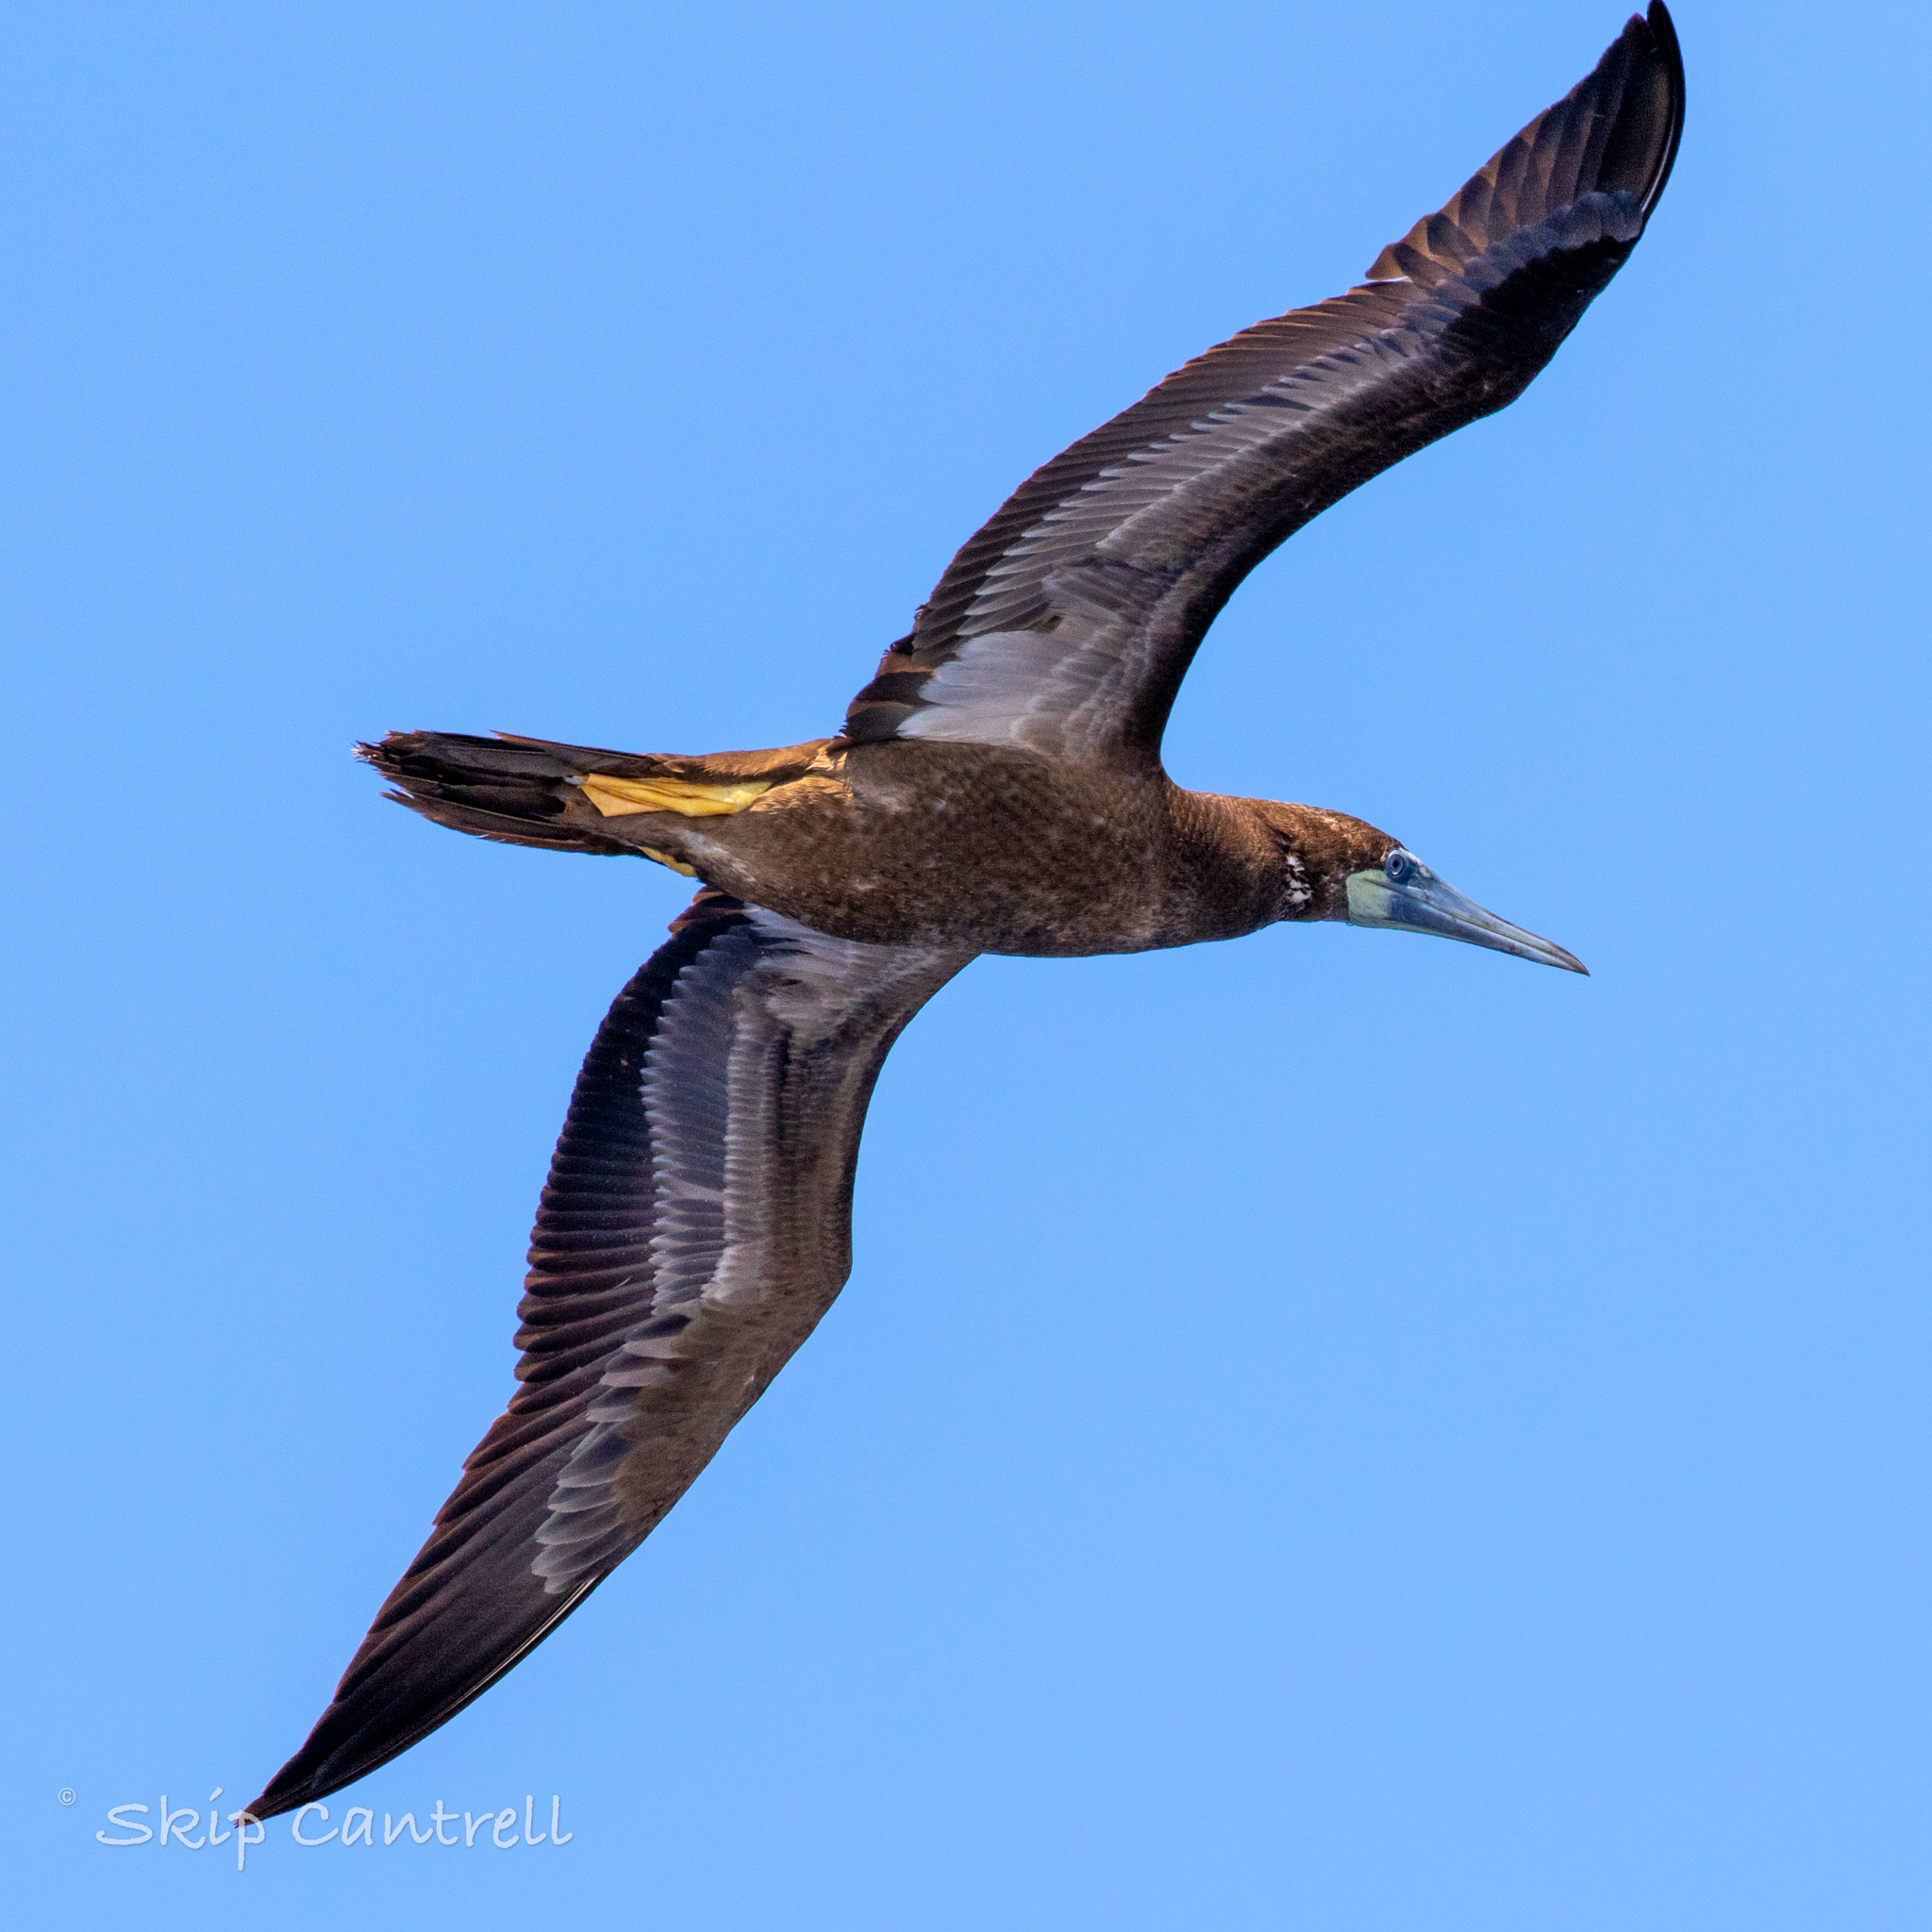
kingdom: Animalia
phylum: Chordata
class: Aves
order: Suliformes
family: Sulidae
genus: Sula
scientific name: Sula leucogaster
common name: Brown booby
